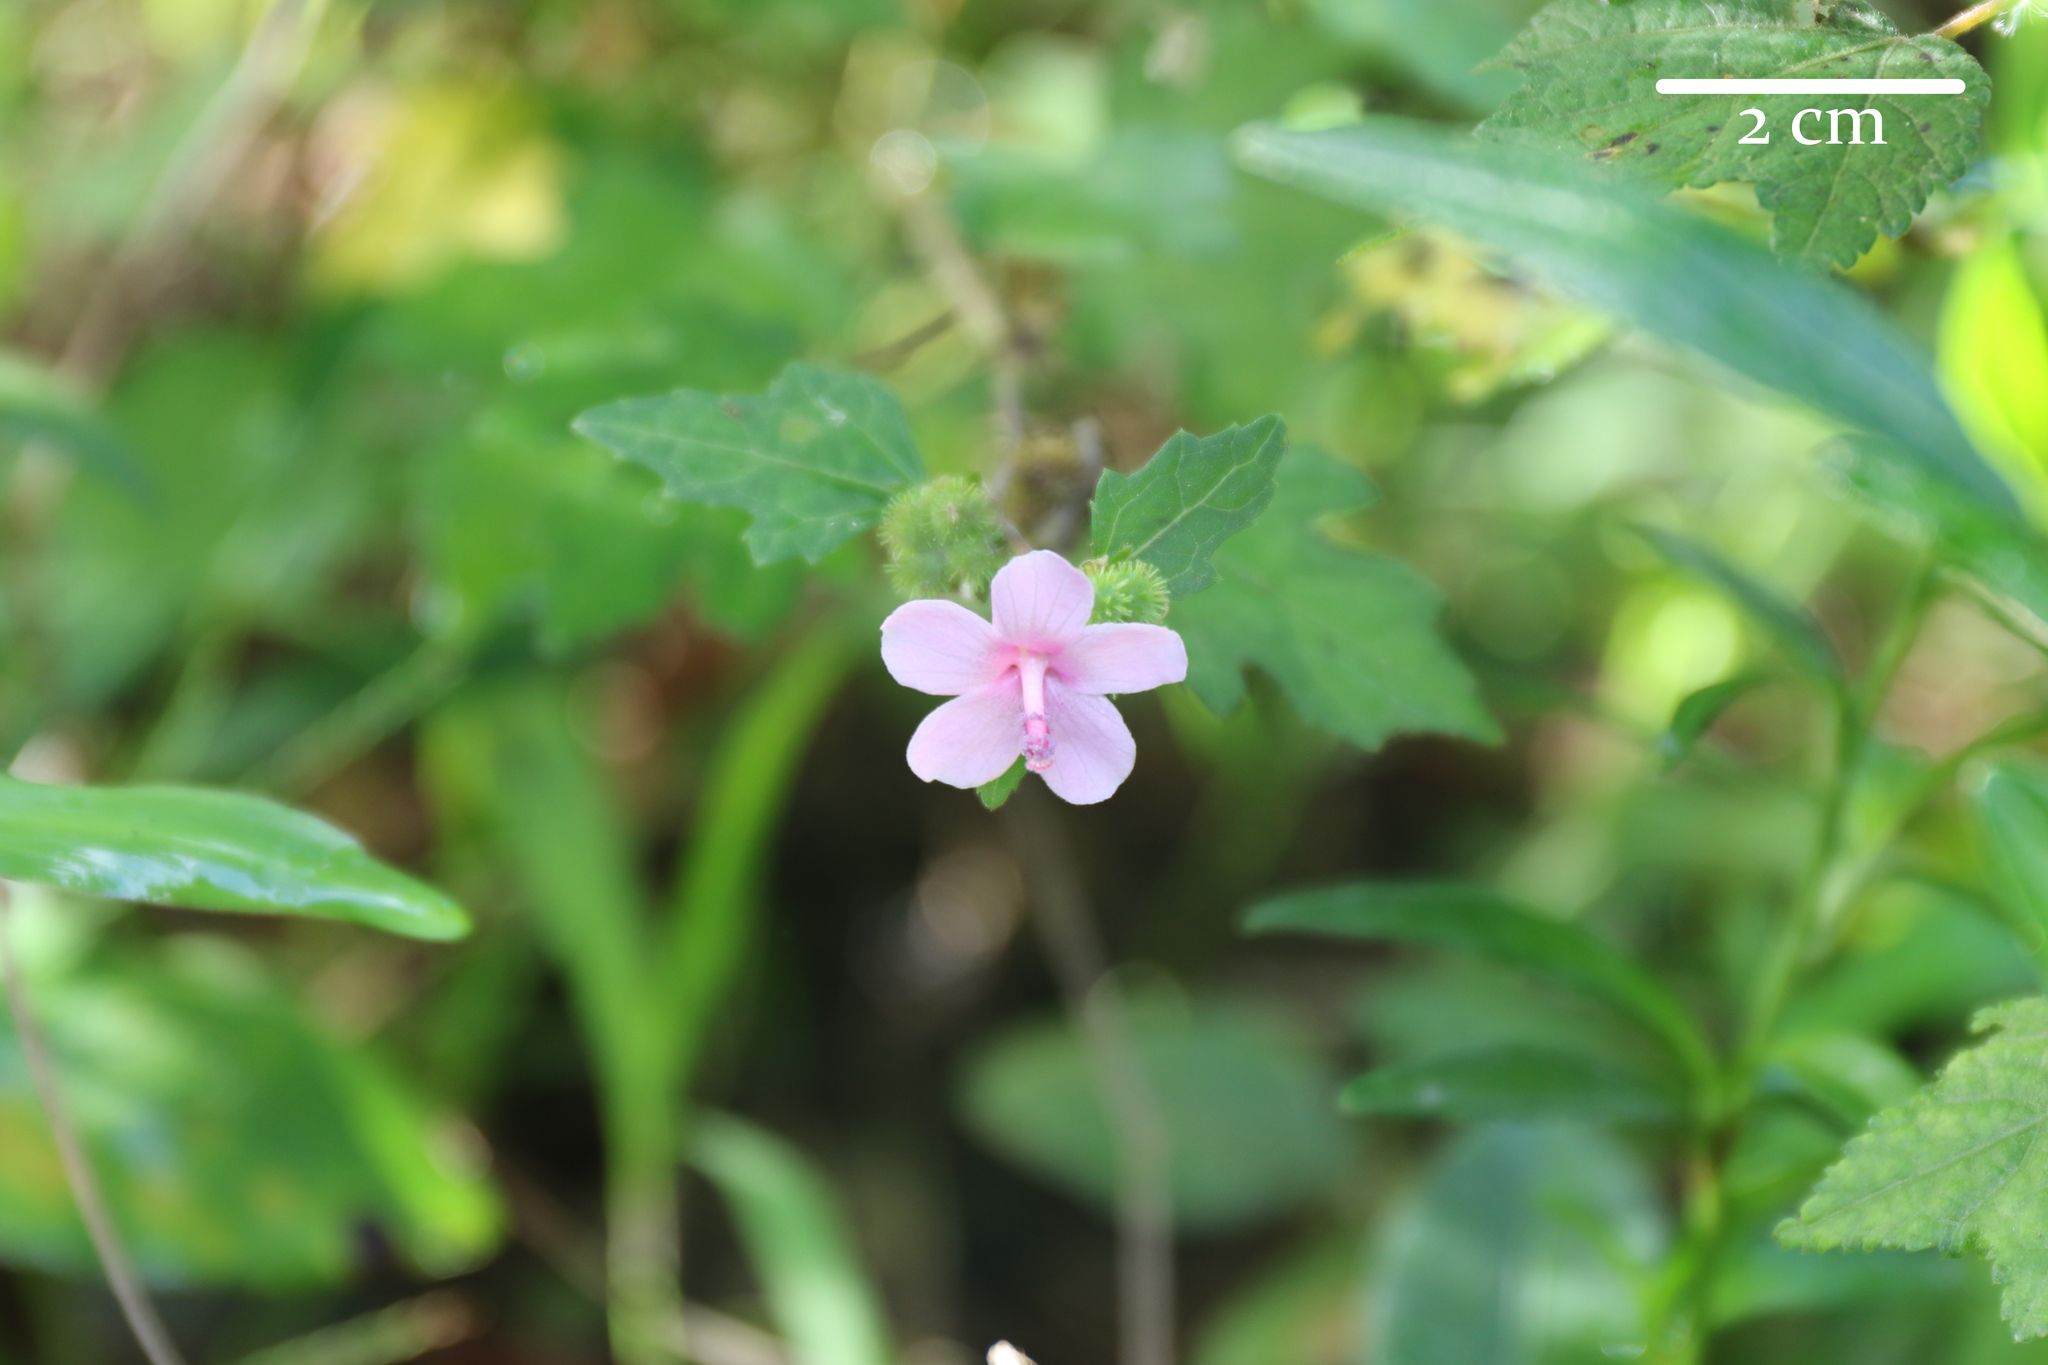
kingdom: Plantae
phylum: Tracheophyta
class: Magnoliopsida
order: Malvales
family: Malvaceae
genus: Urena
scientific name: Urena lobata
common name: Caesarweed
